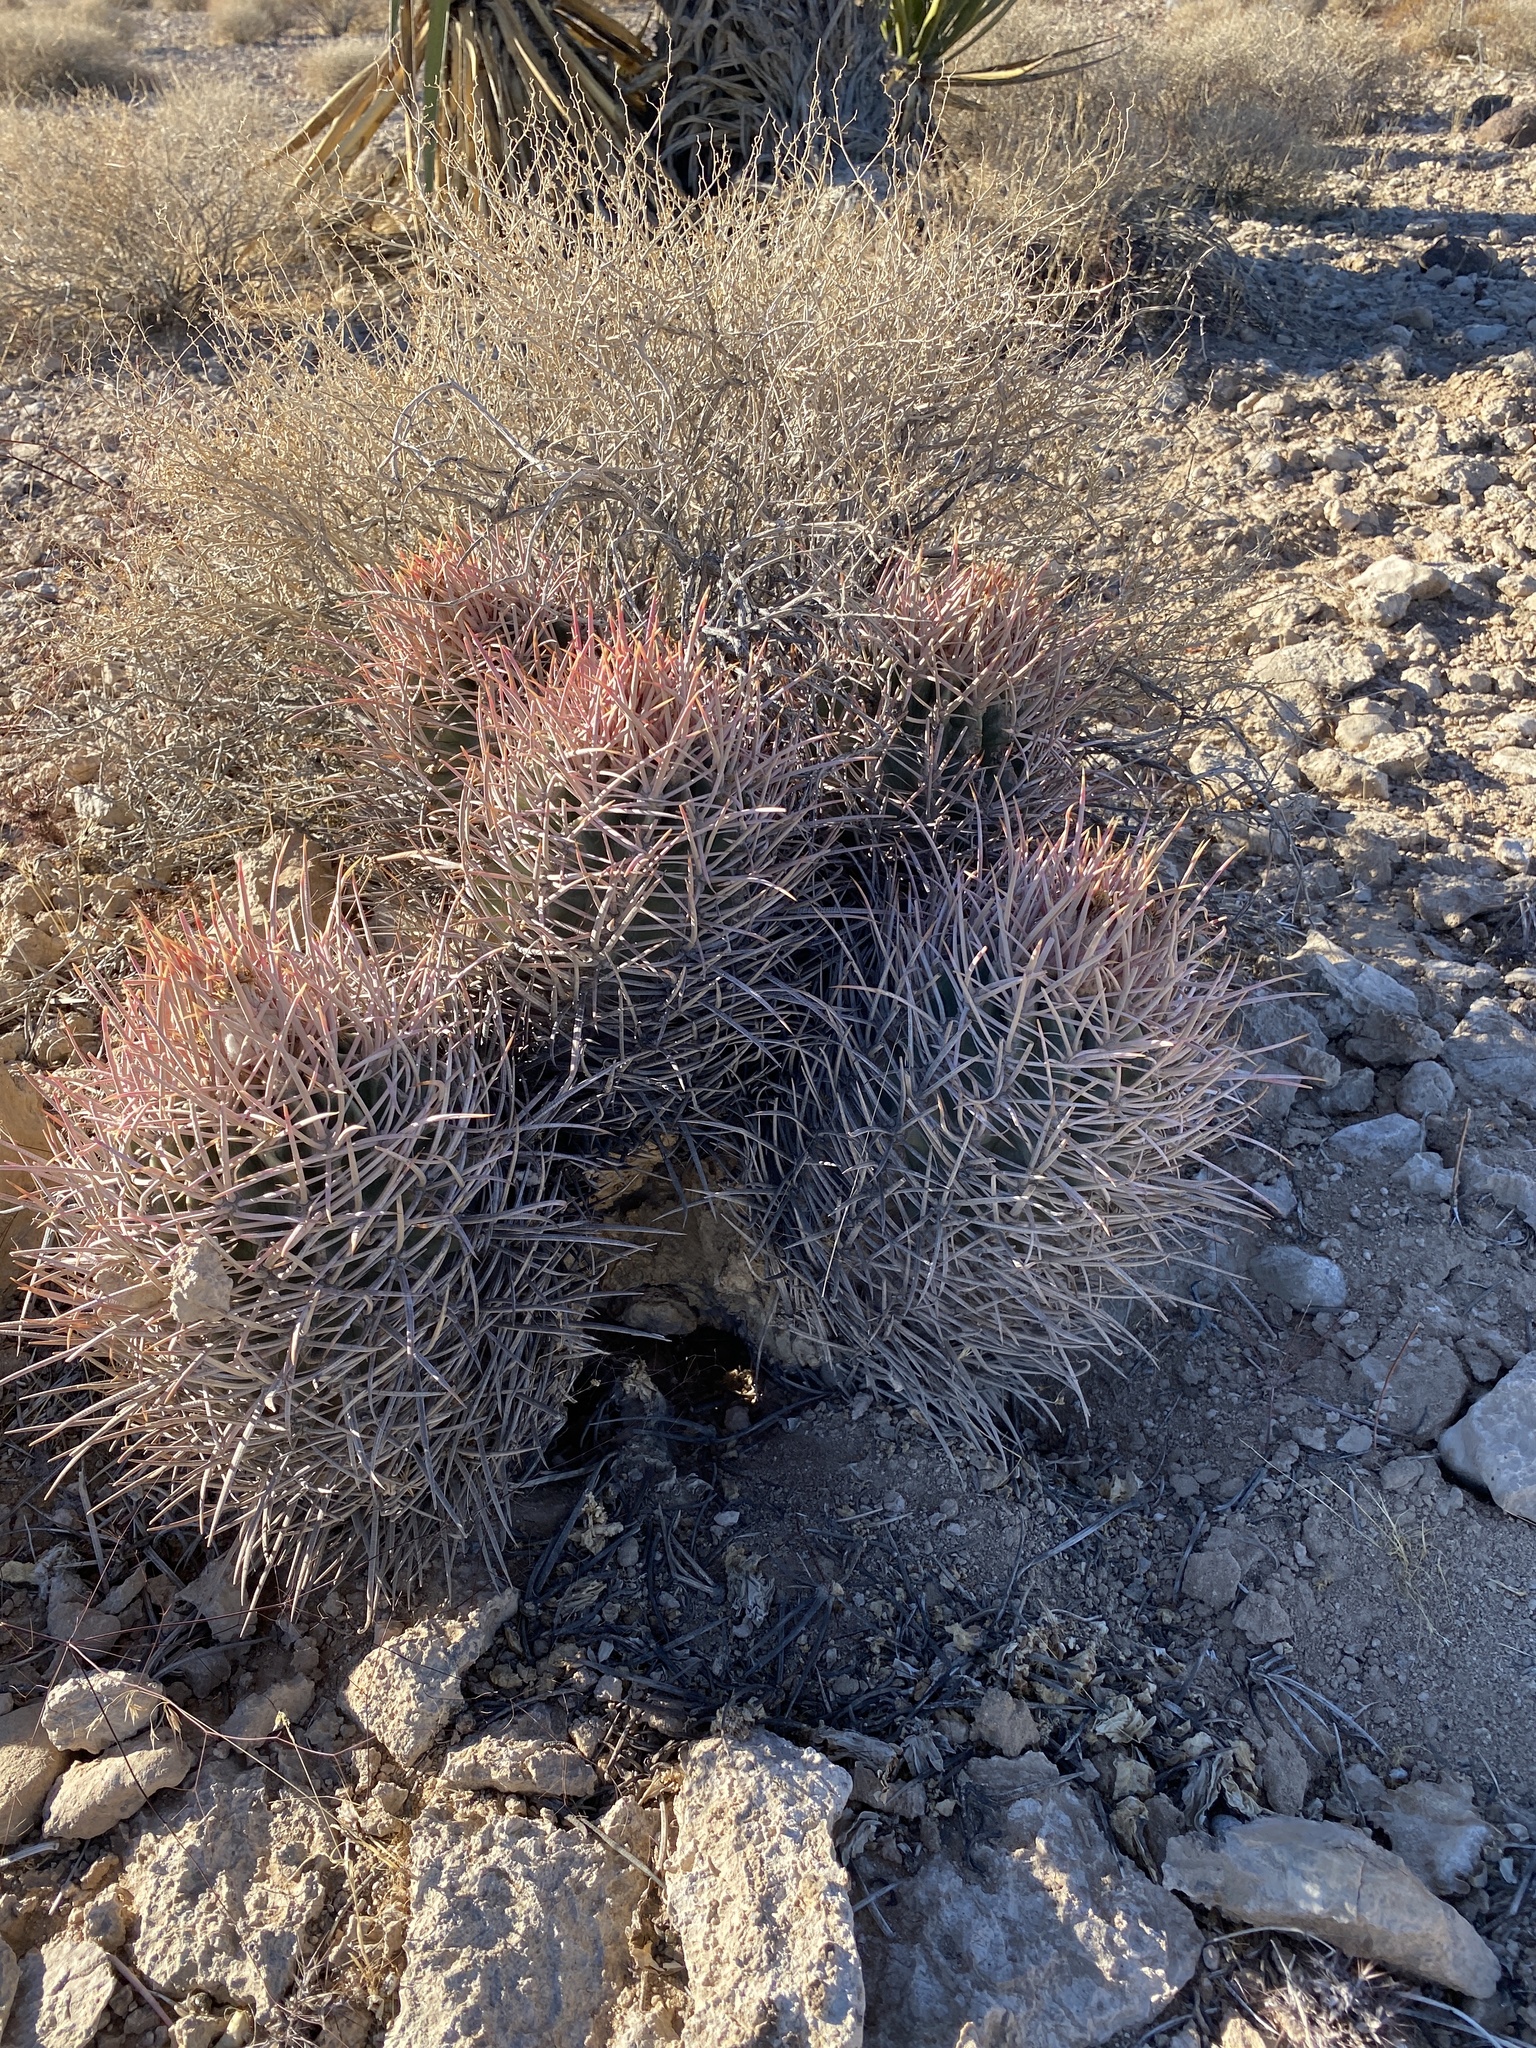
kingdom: Plantae
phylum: Tracheophyta
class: Magnoliopsida
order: Caryophyllales
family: Cactaceae
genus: Echinocactus
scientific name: Echinocactus polycephalus
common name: Cottontop cactus
